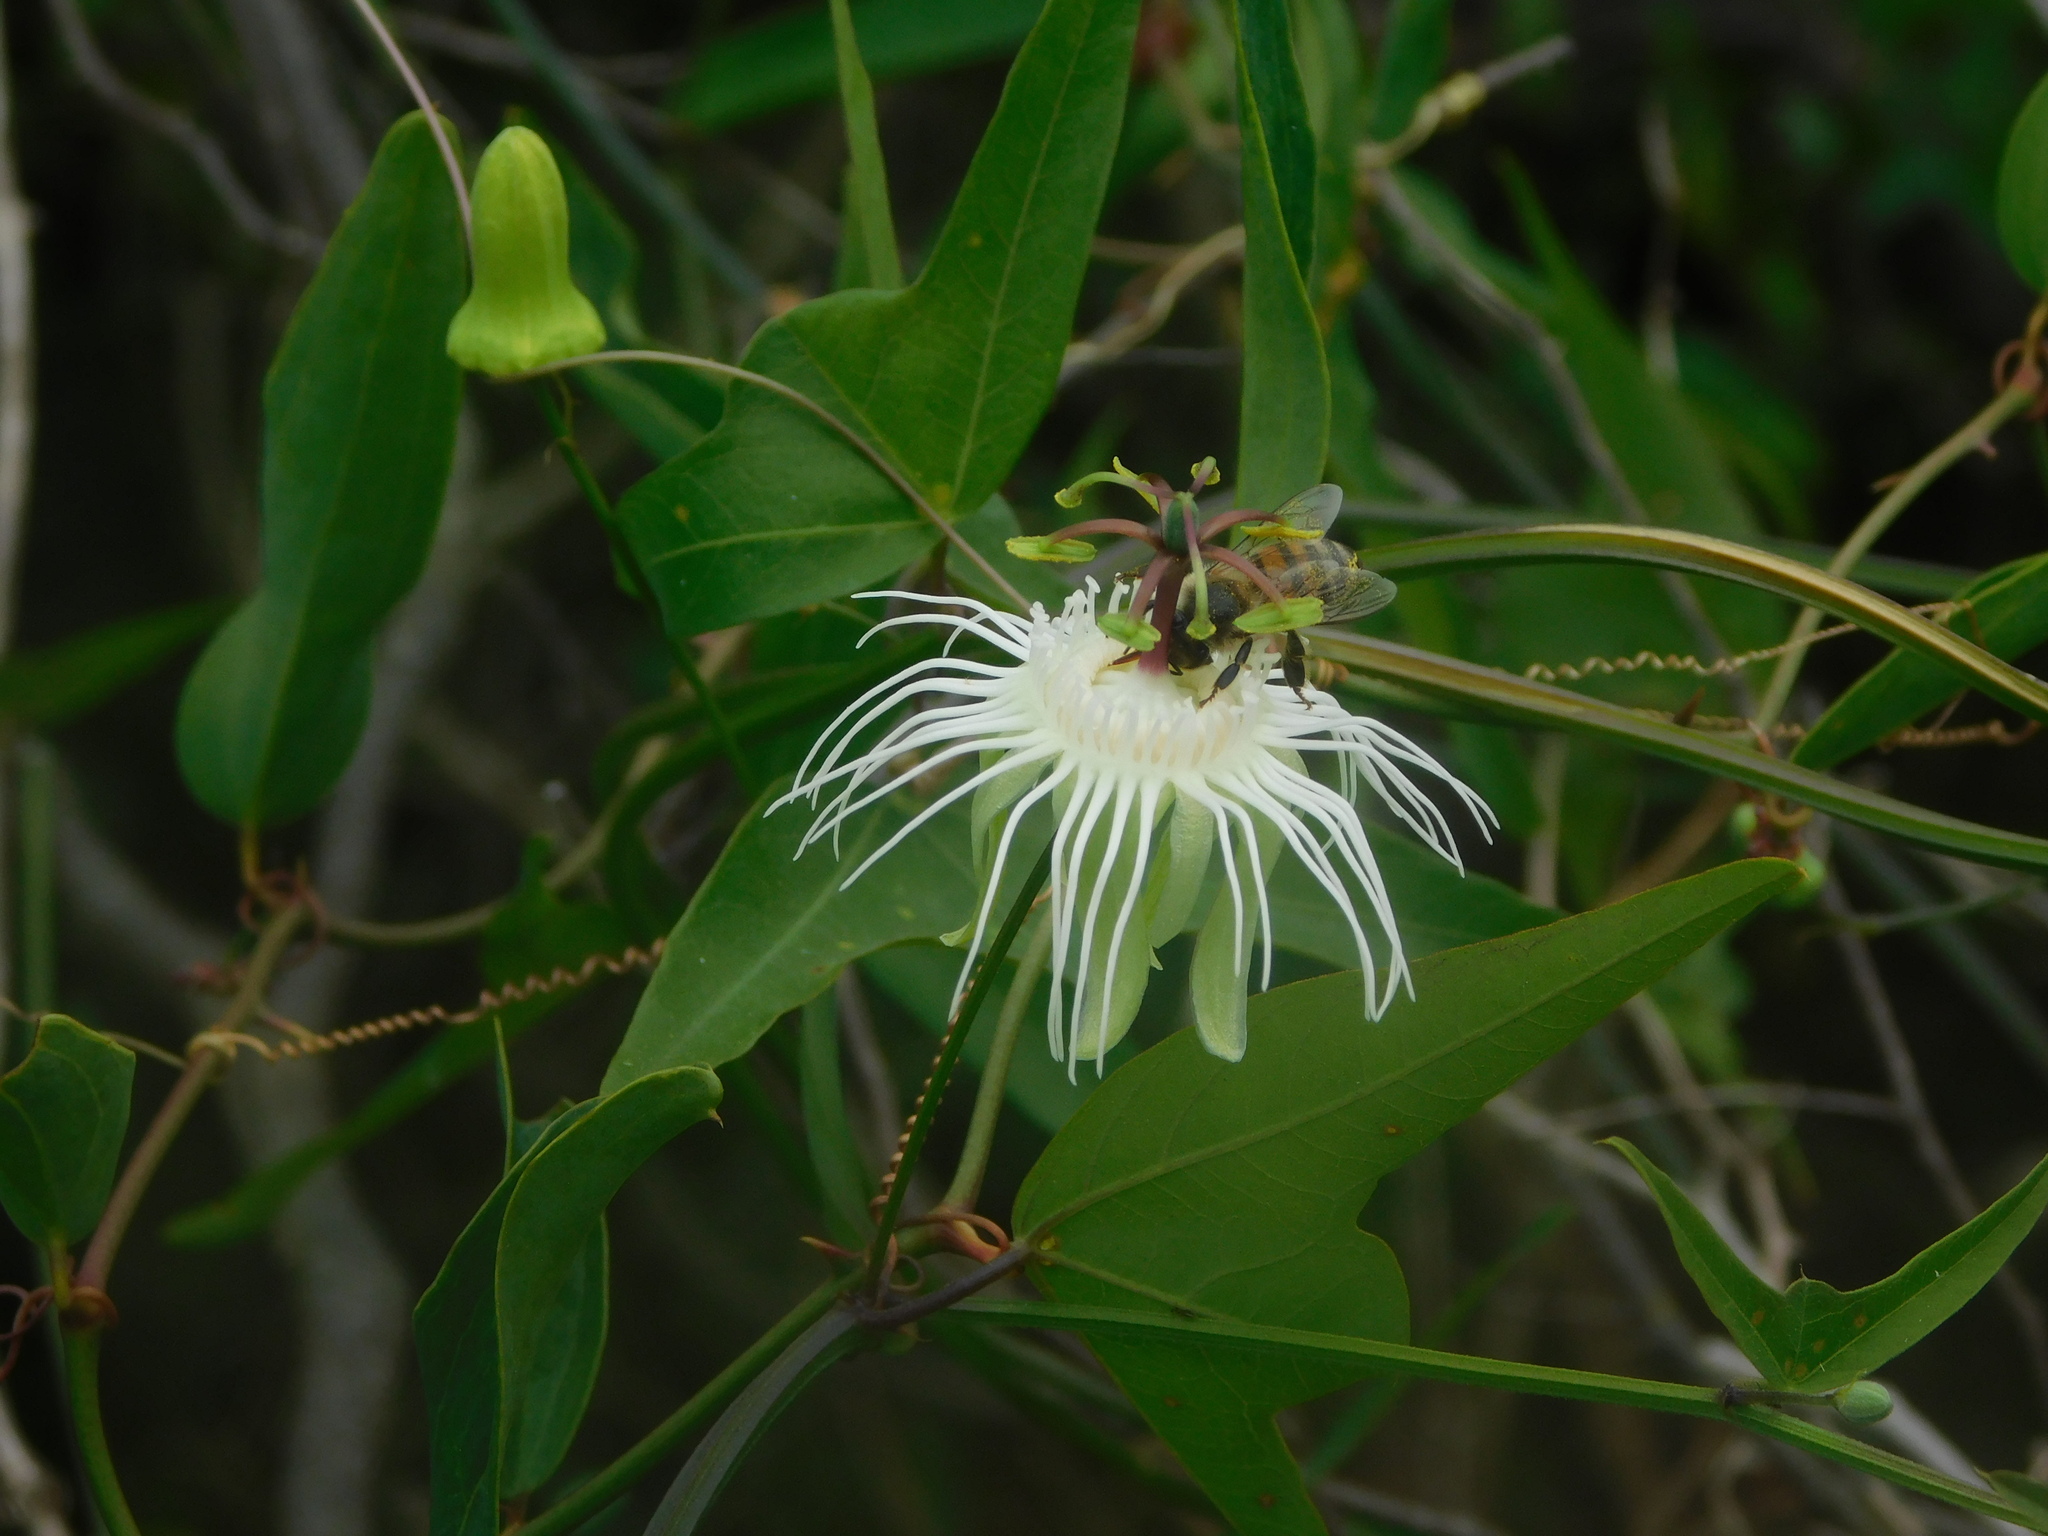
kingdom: Plantae
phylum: Tracheophyta
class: Magnoliopsida
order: Malpighiales
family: Passifloraceae
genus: Passiflora
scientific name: Passiflora misera
